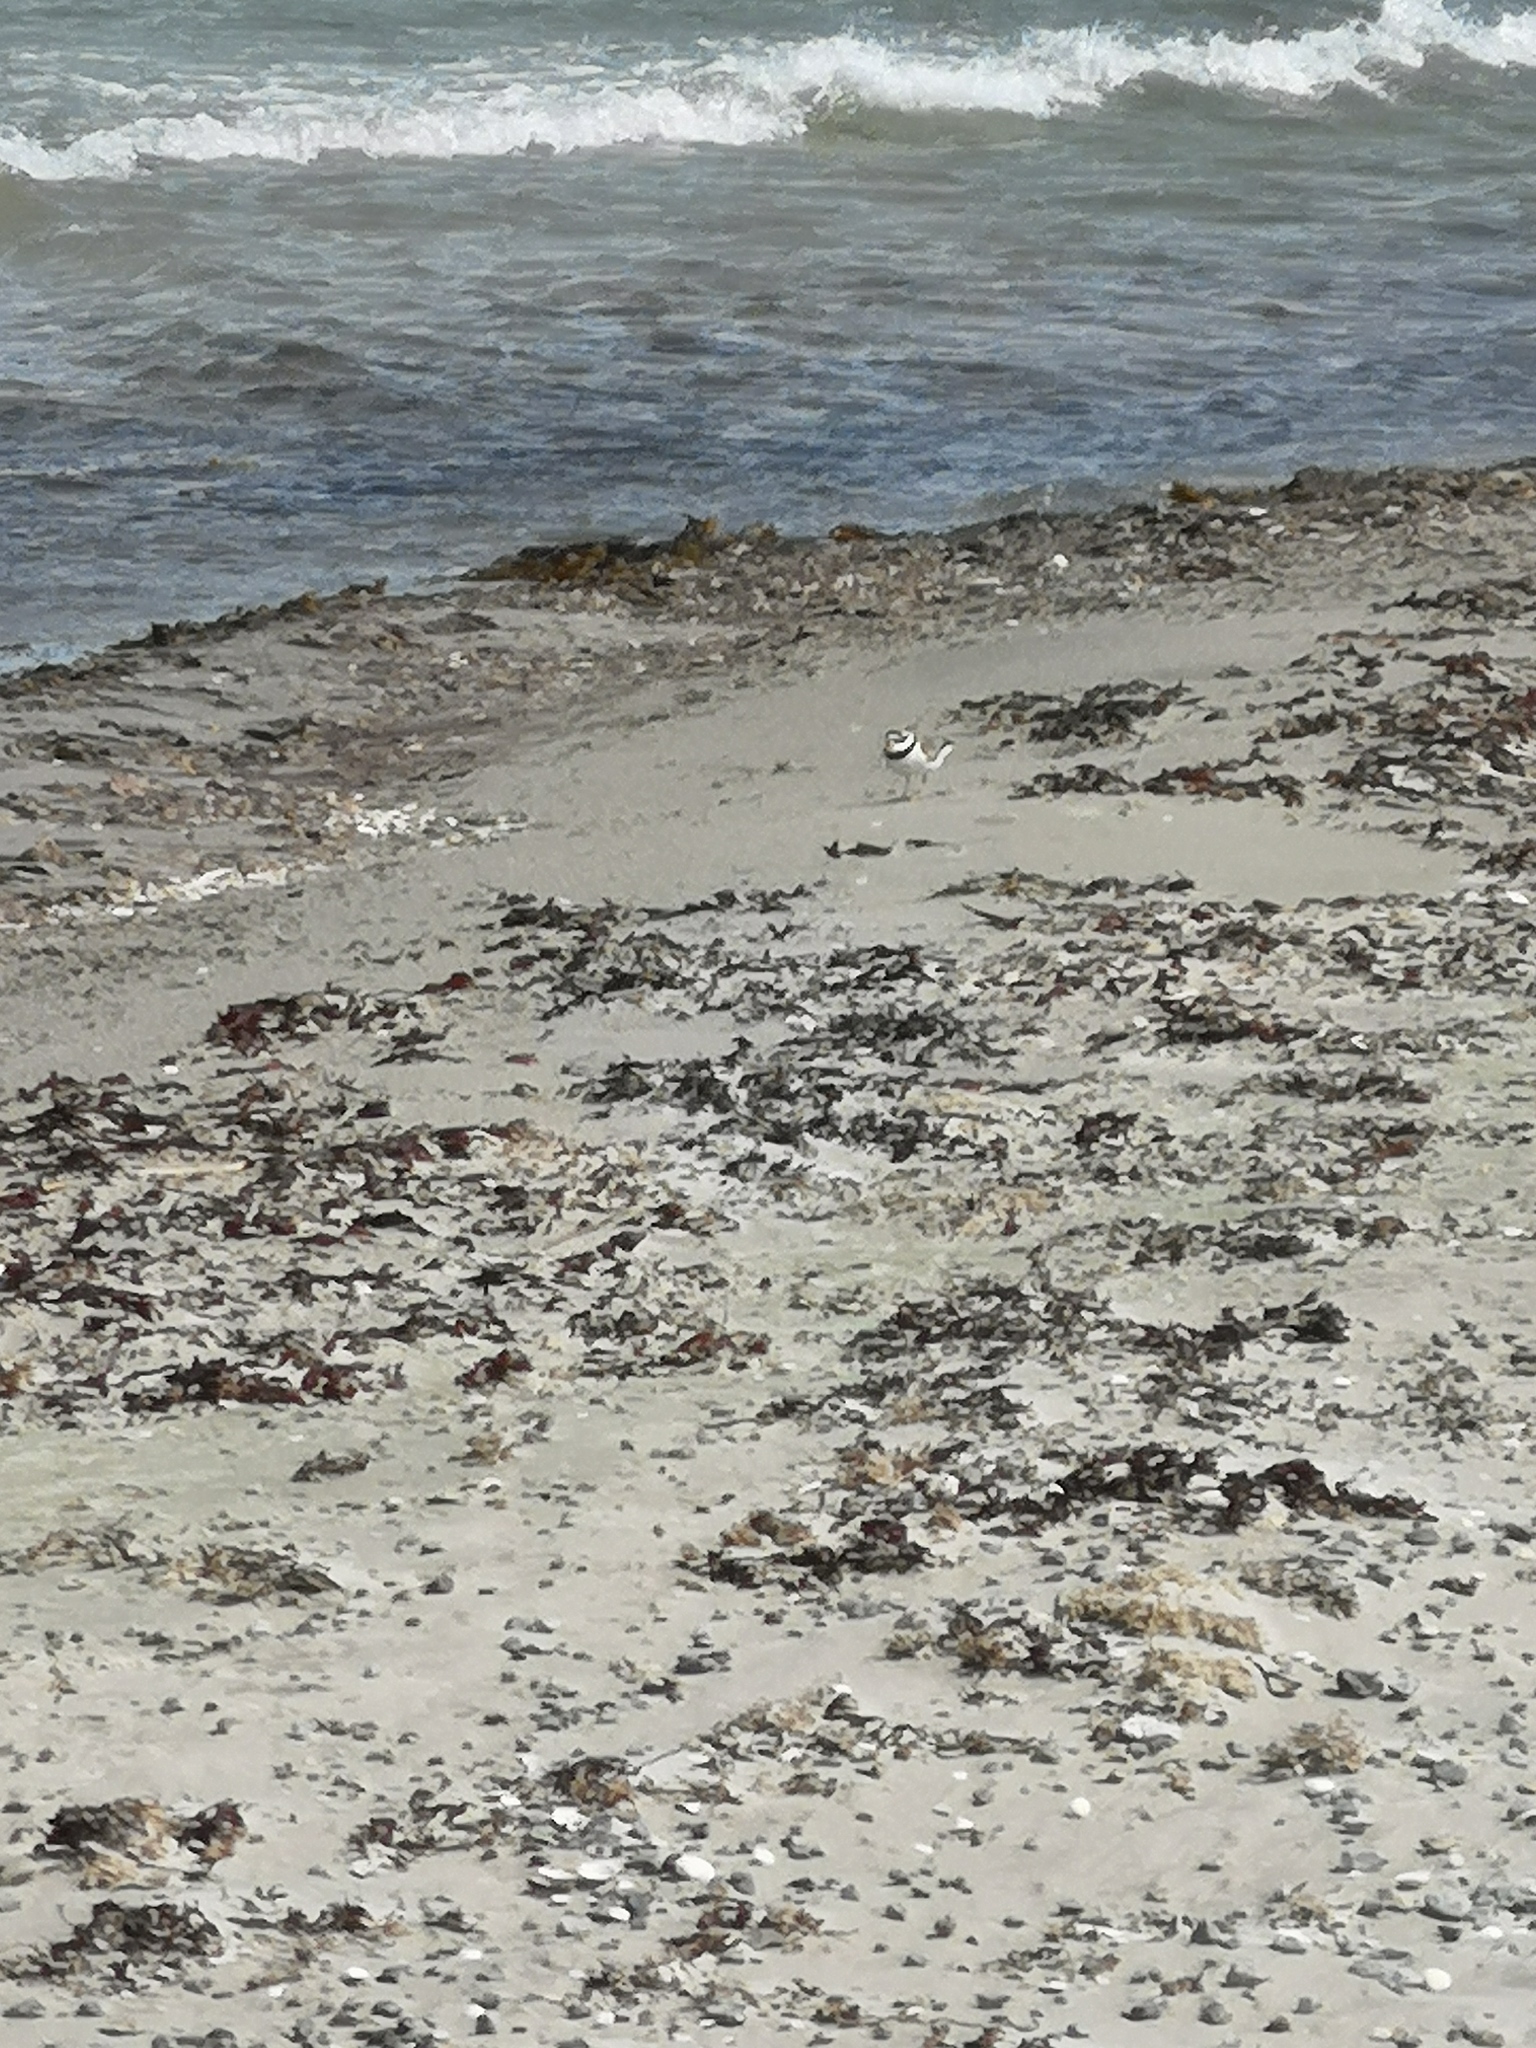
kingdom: Animalia
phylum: Chordata
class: Aves
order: Charadriiformes
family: Charadriidae
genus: Charadrius
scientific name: Charadrius hiaticula
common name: Common ringed plover
